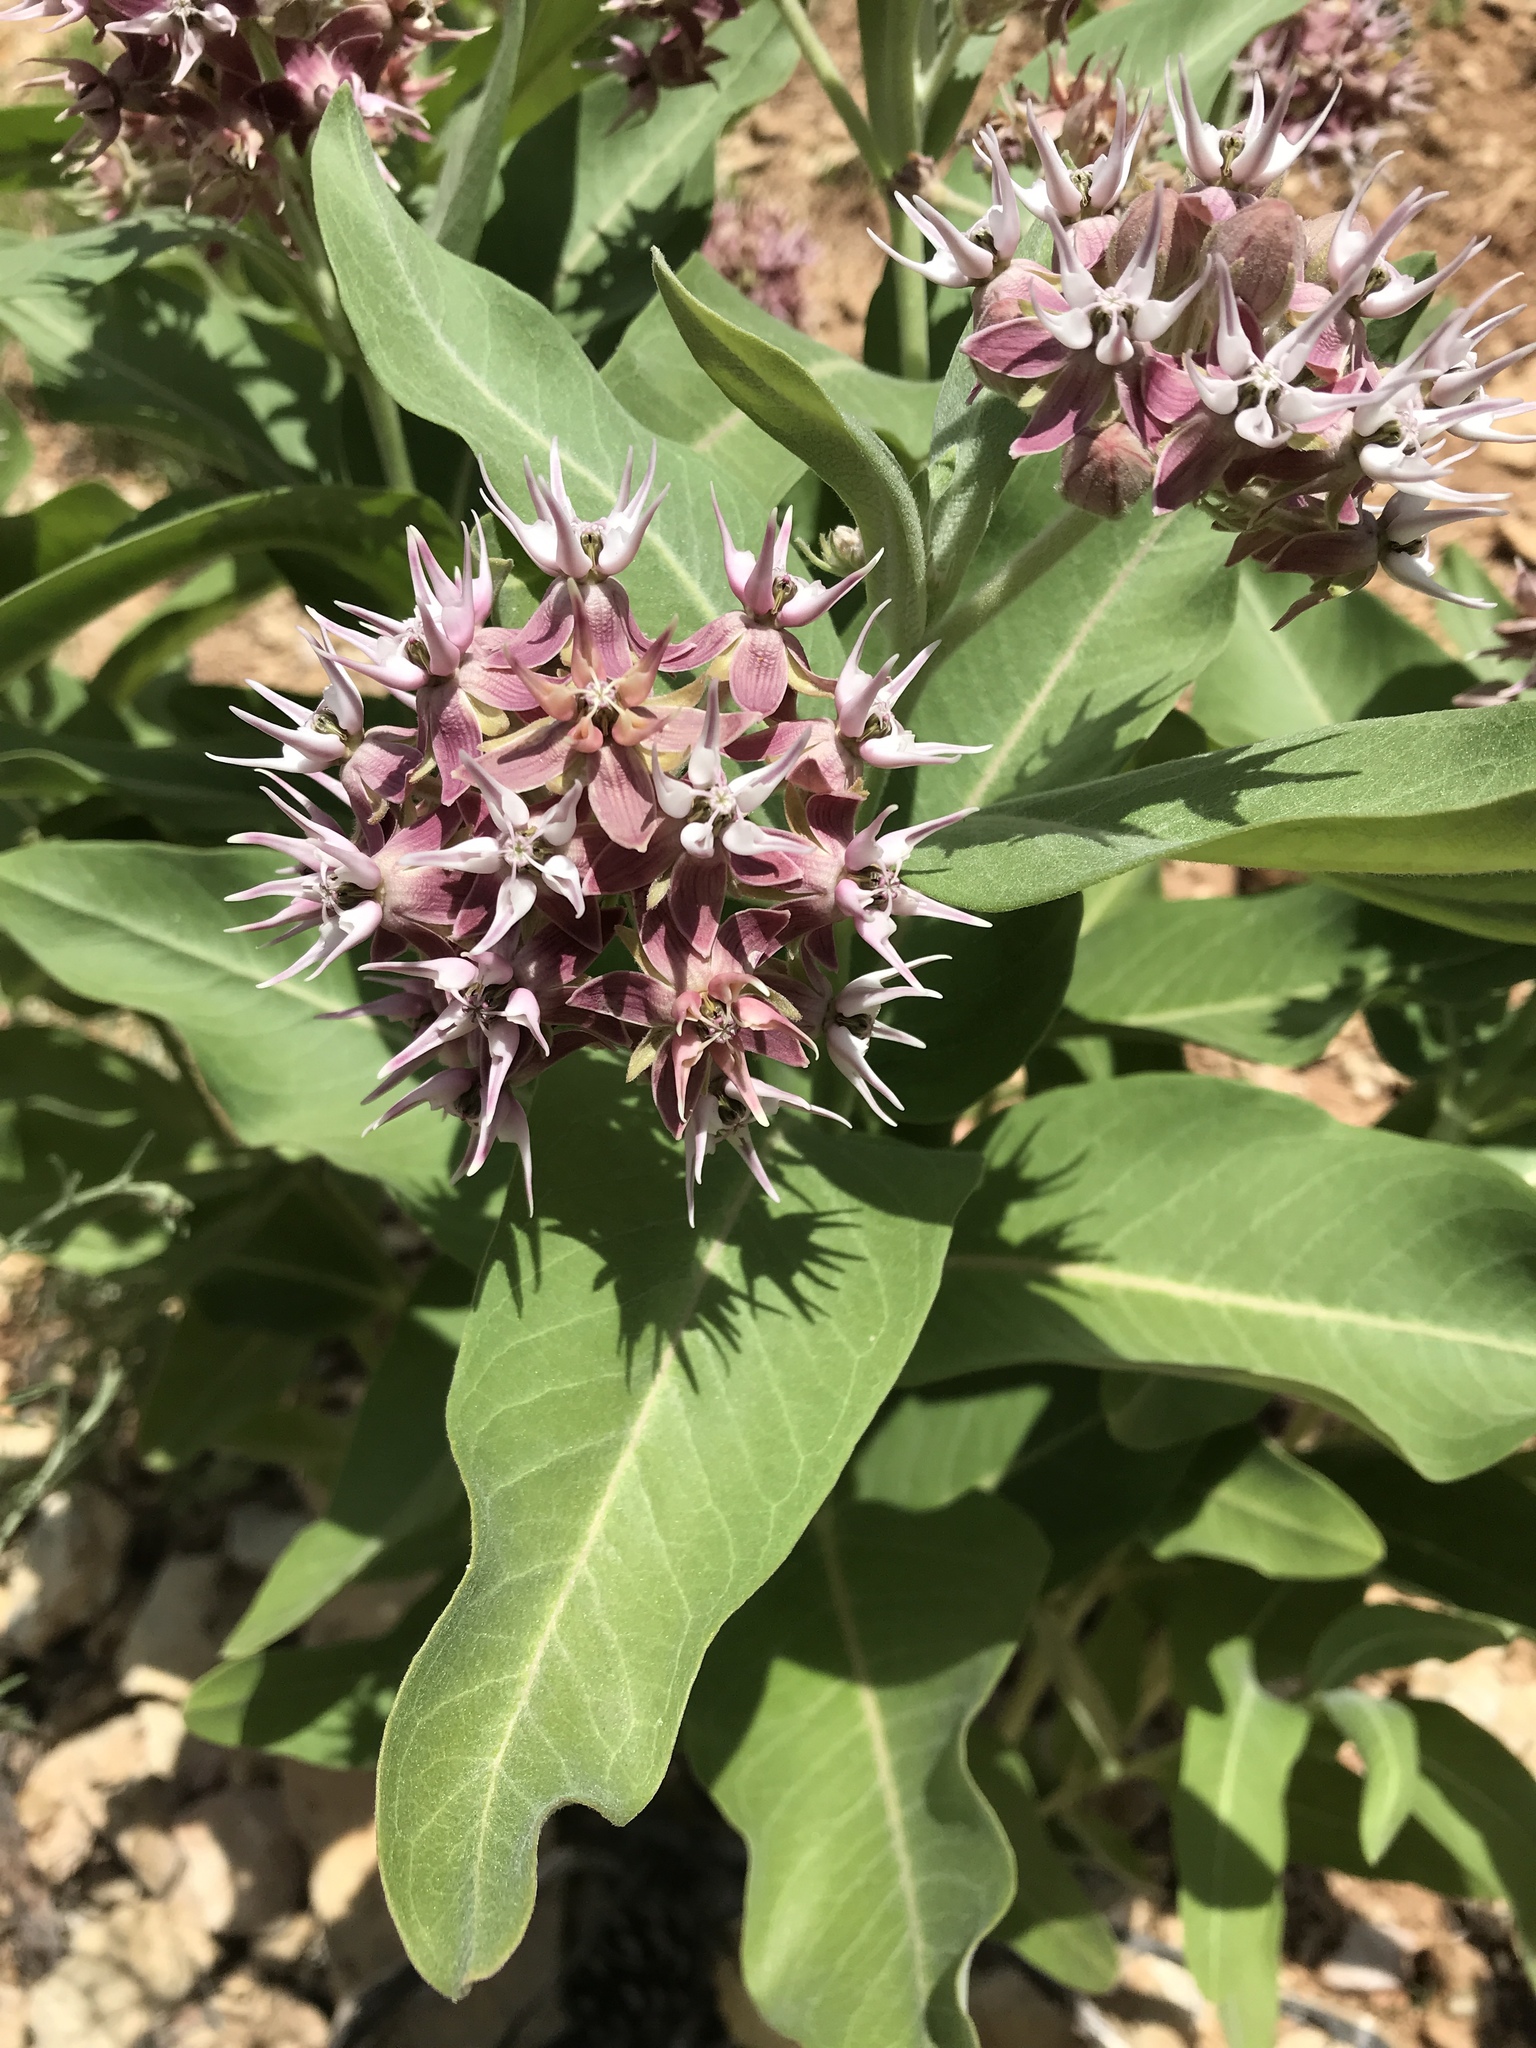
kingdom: Plantae
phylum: Tracheophyta
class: Magnoliopsida
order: Gentianales
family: Apocynaceae
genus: Asclepias
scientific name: Asclepias speciosa
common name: Showy milkweed
